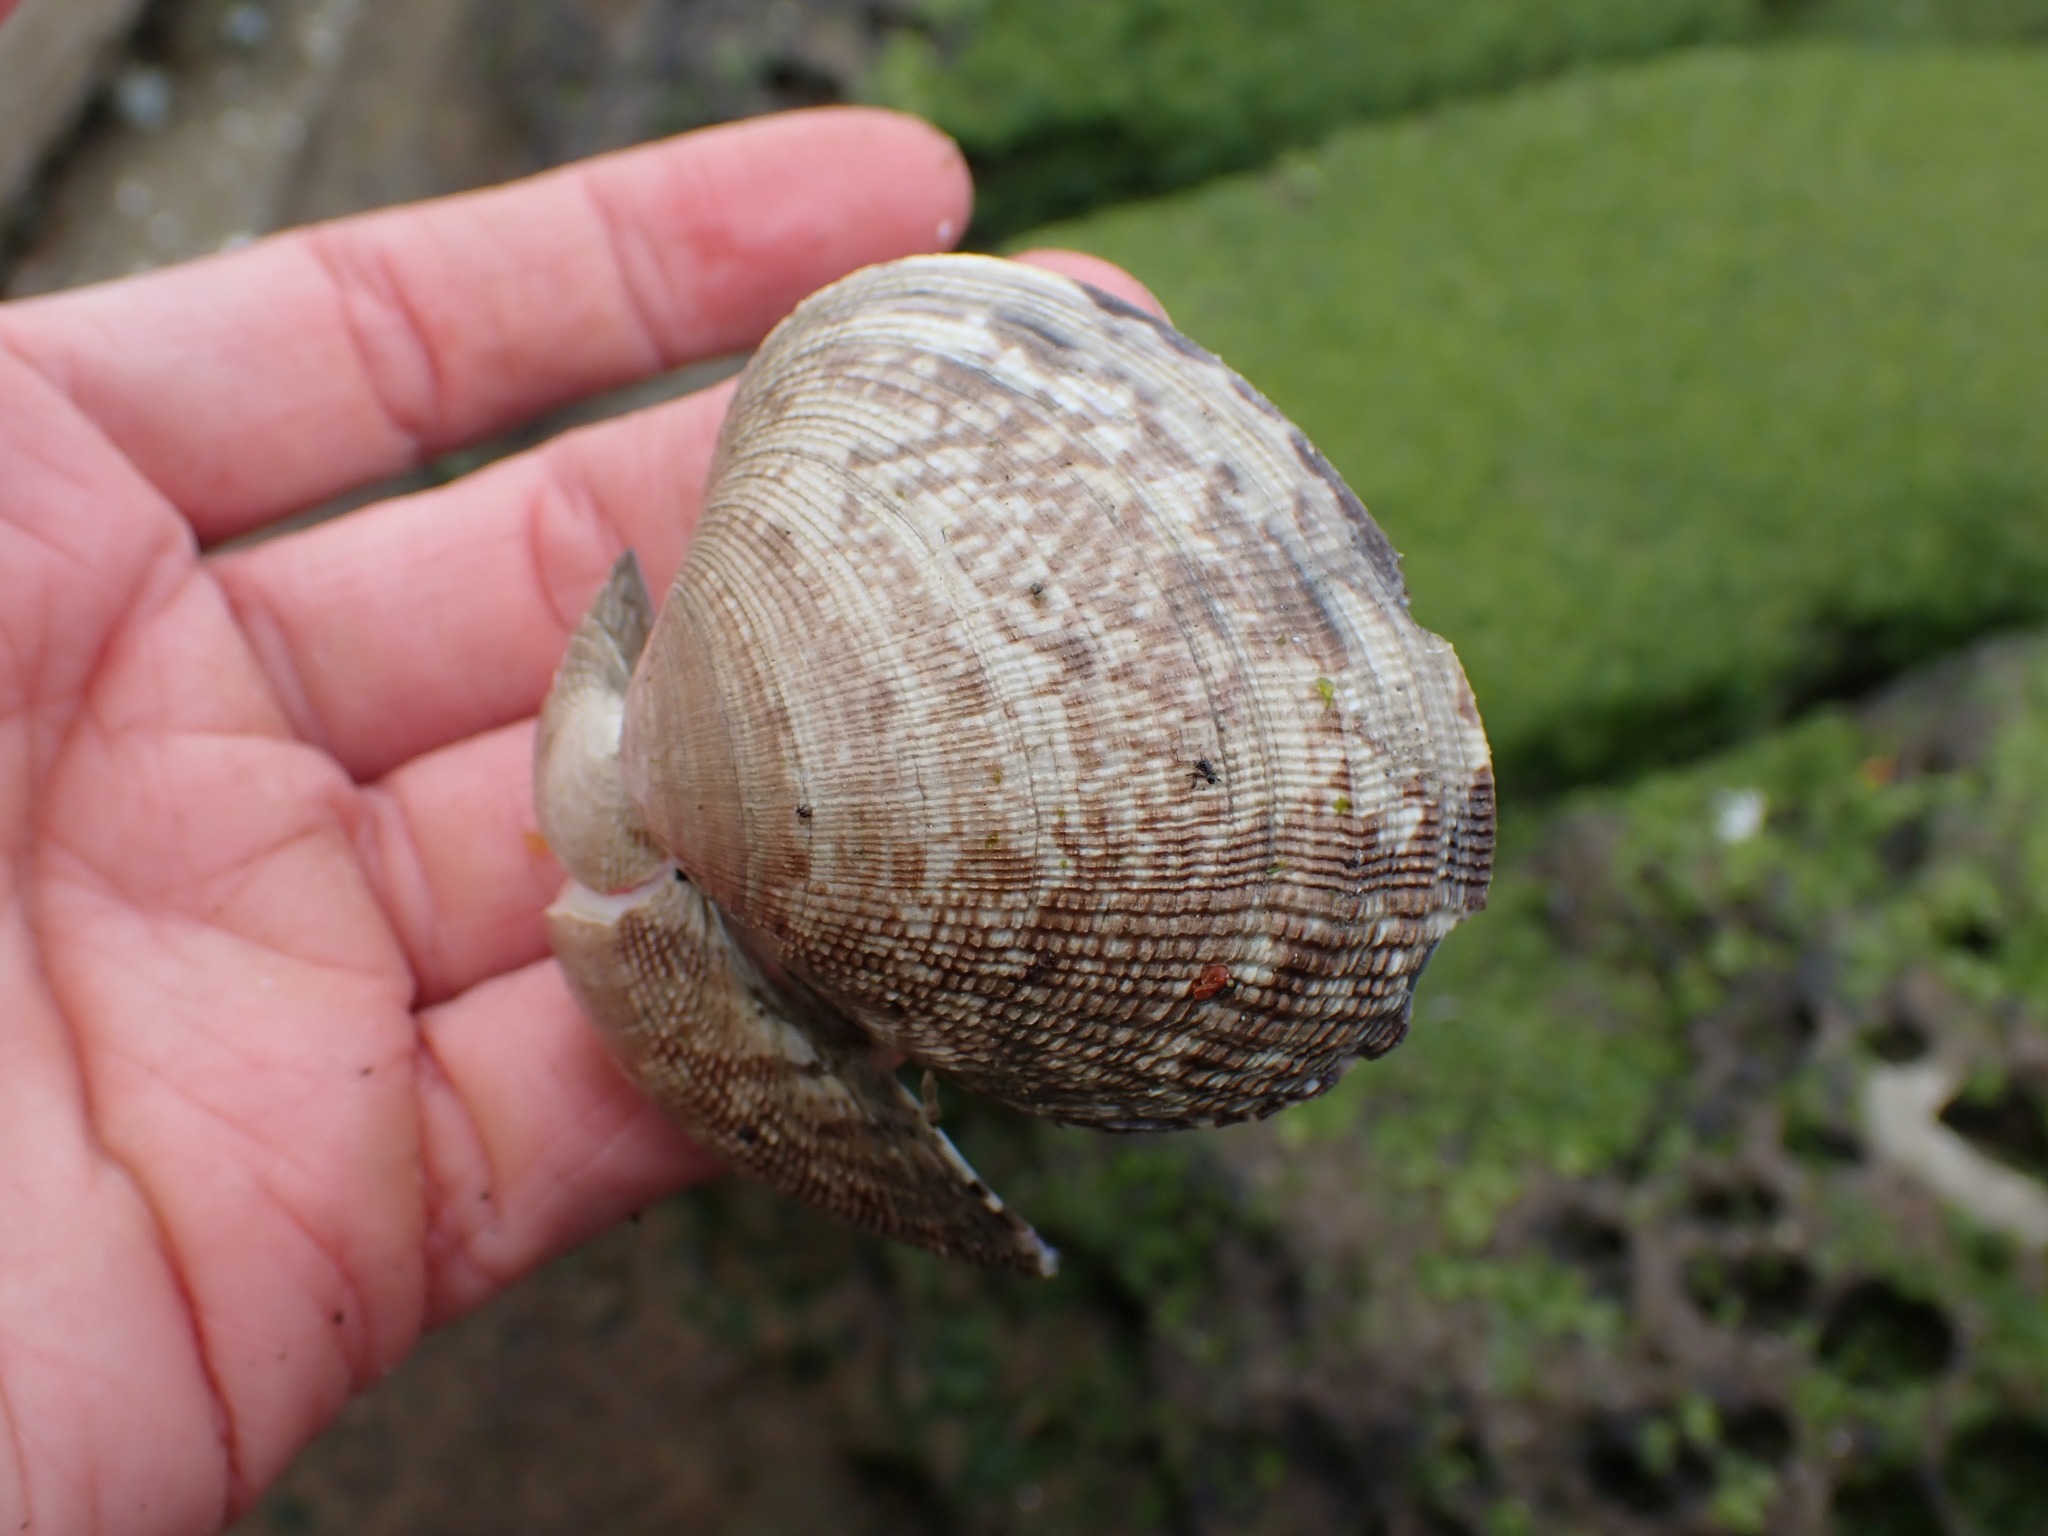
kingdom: Animalia
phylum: Mollusca
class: Bivalvia
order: Venerida
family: Veneridae
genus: Ruditapes
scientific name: Ruditapes philippinarum
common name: Manila clam
